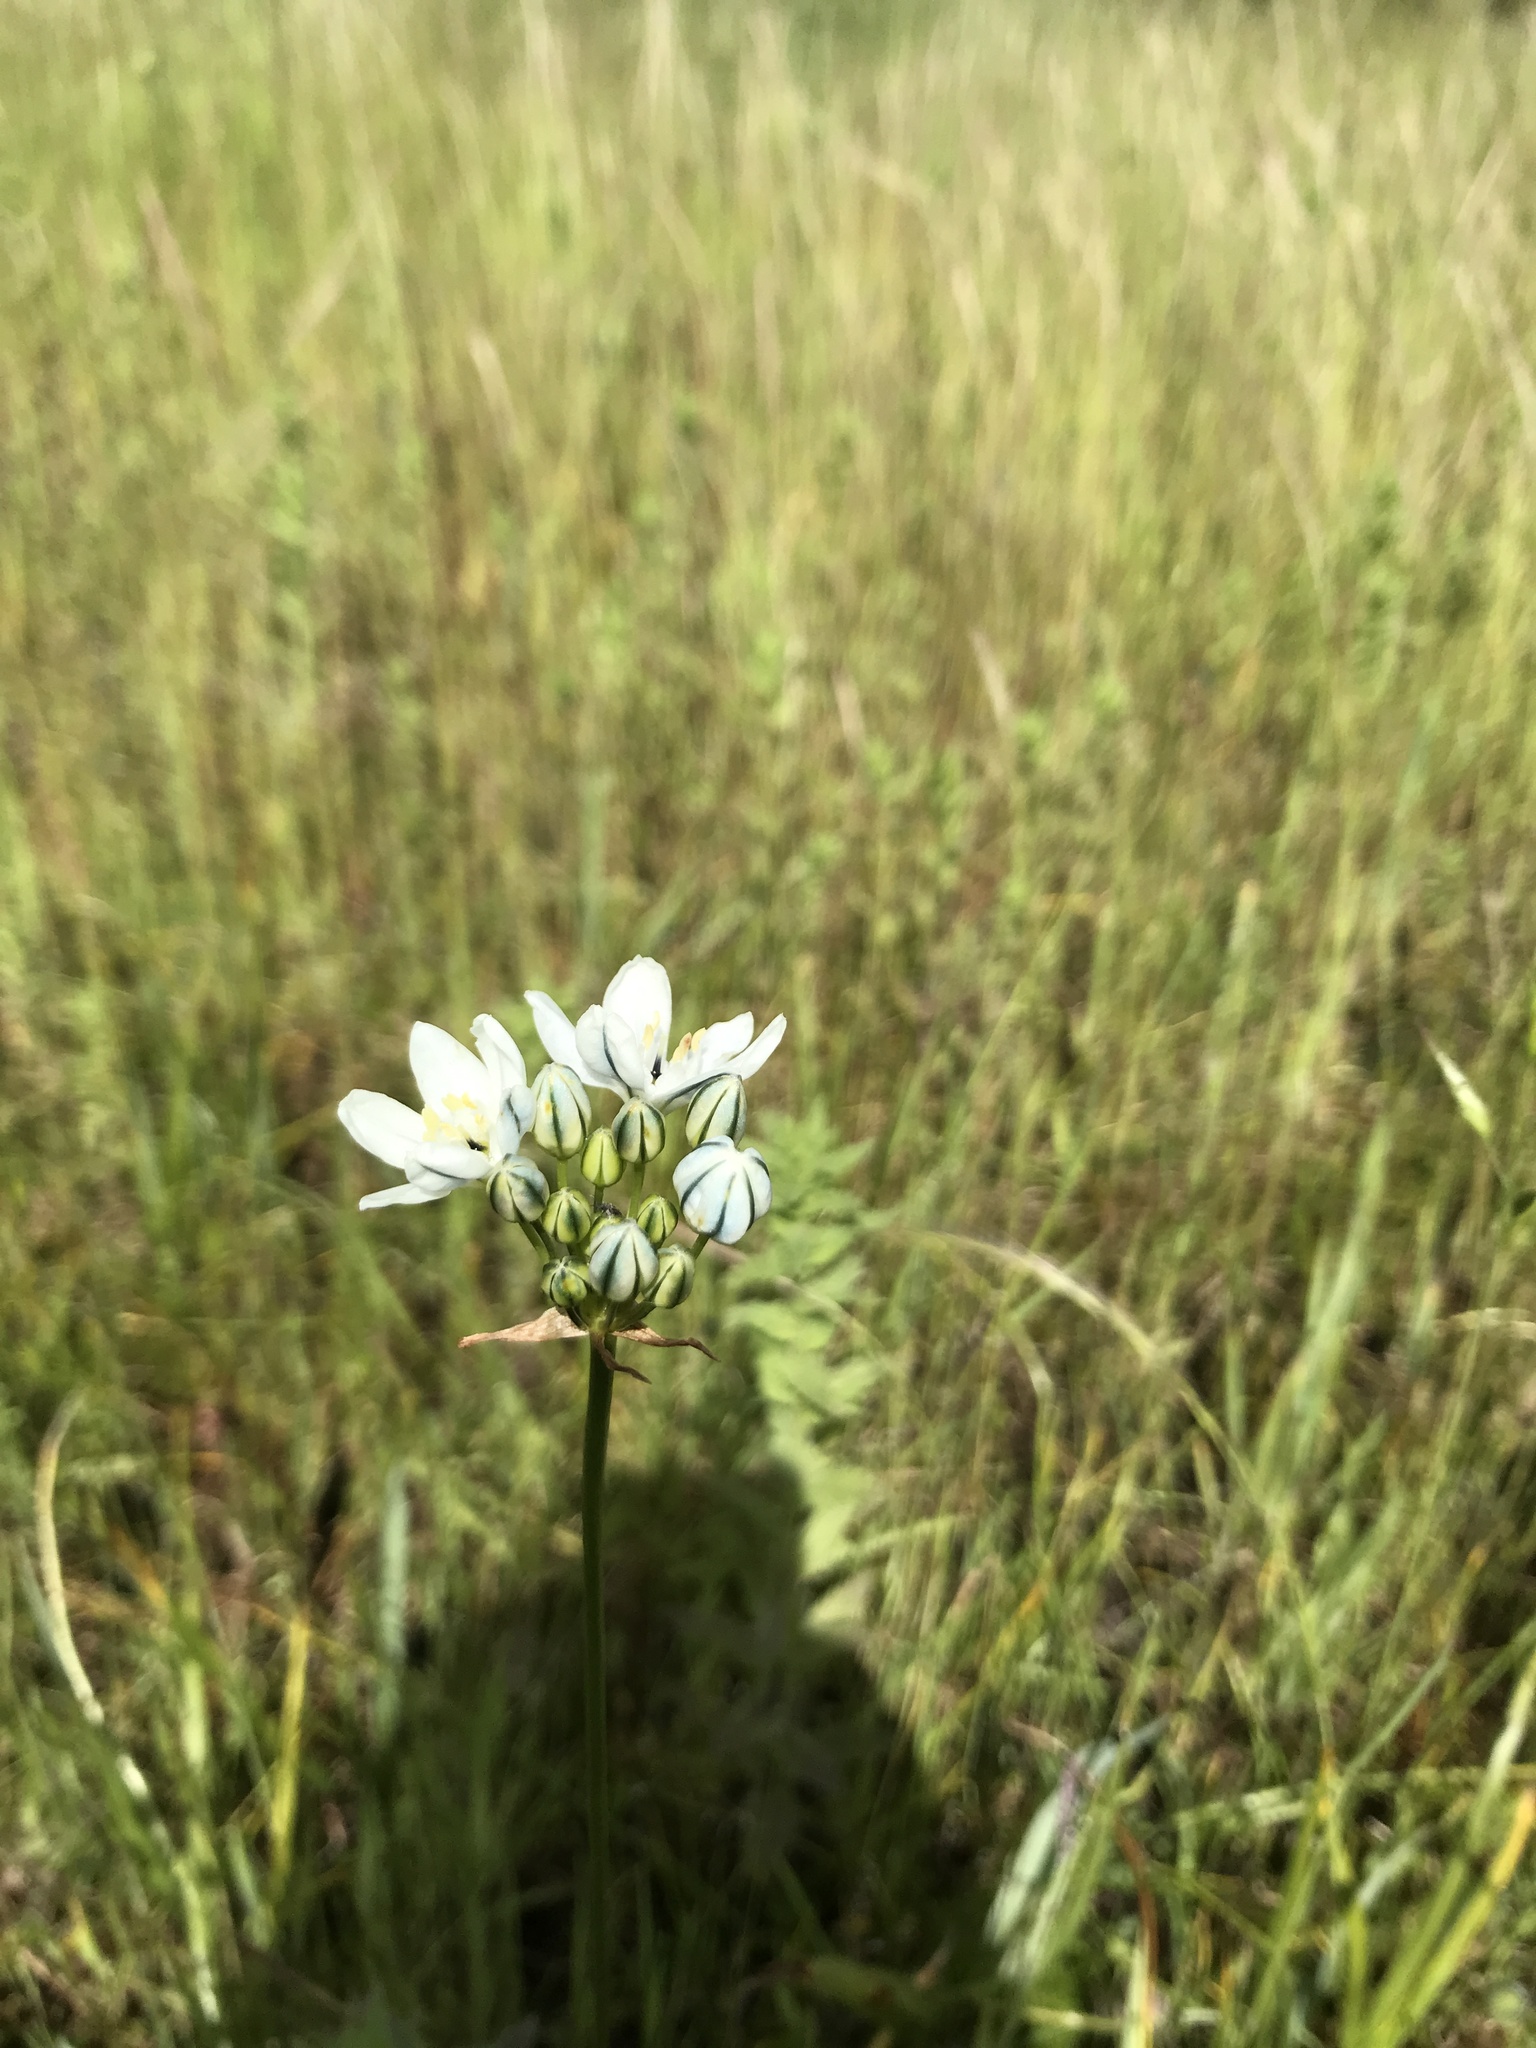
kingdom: Plantae
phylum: Tracheophyta
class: Liliopsida
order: Asparagales
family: Asparagaceae
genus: Triteleia
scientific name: Triteleia hyacinthina
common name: White brodiaea
